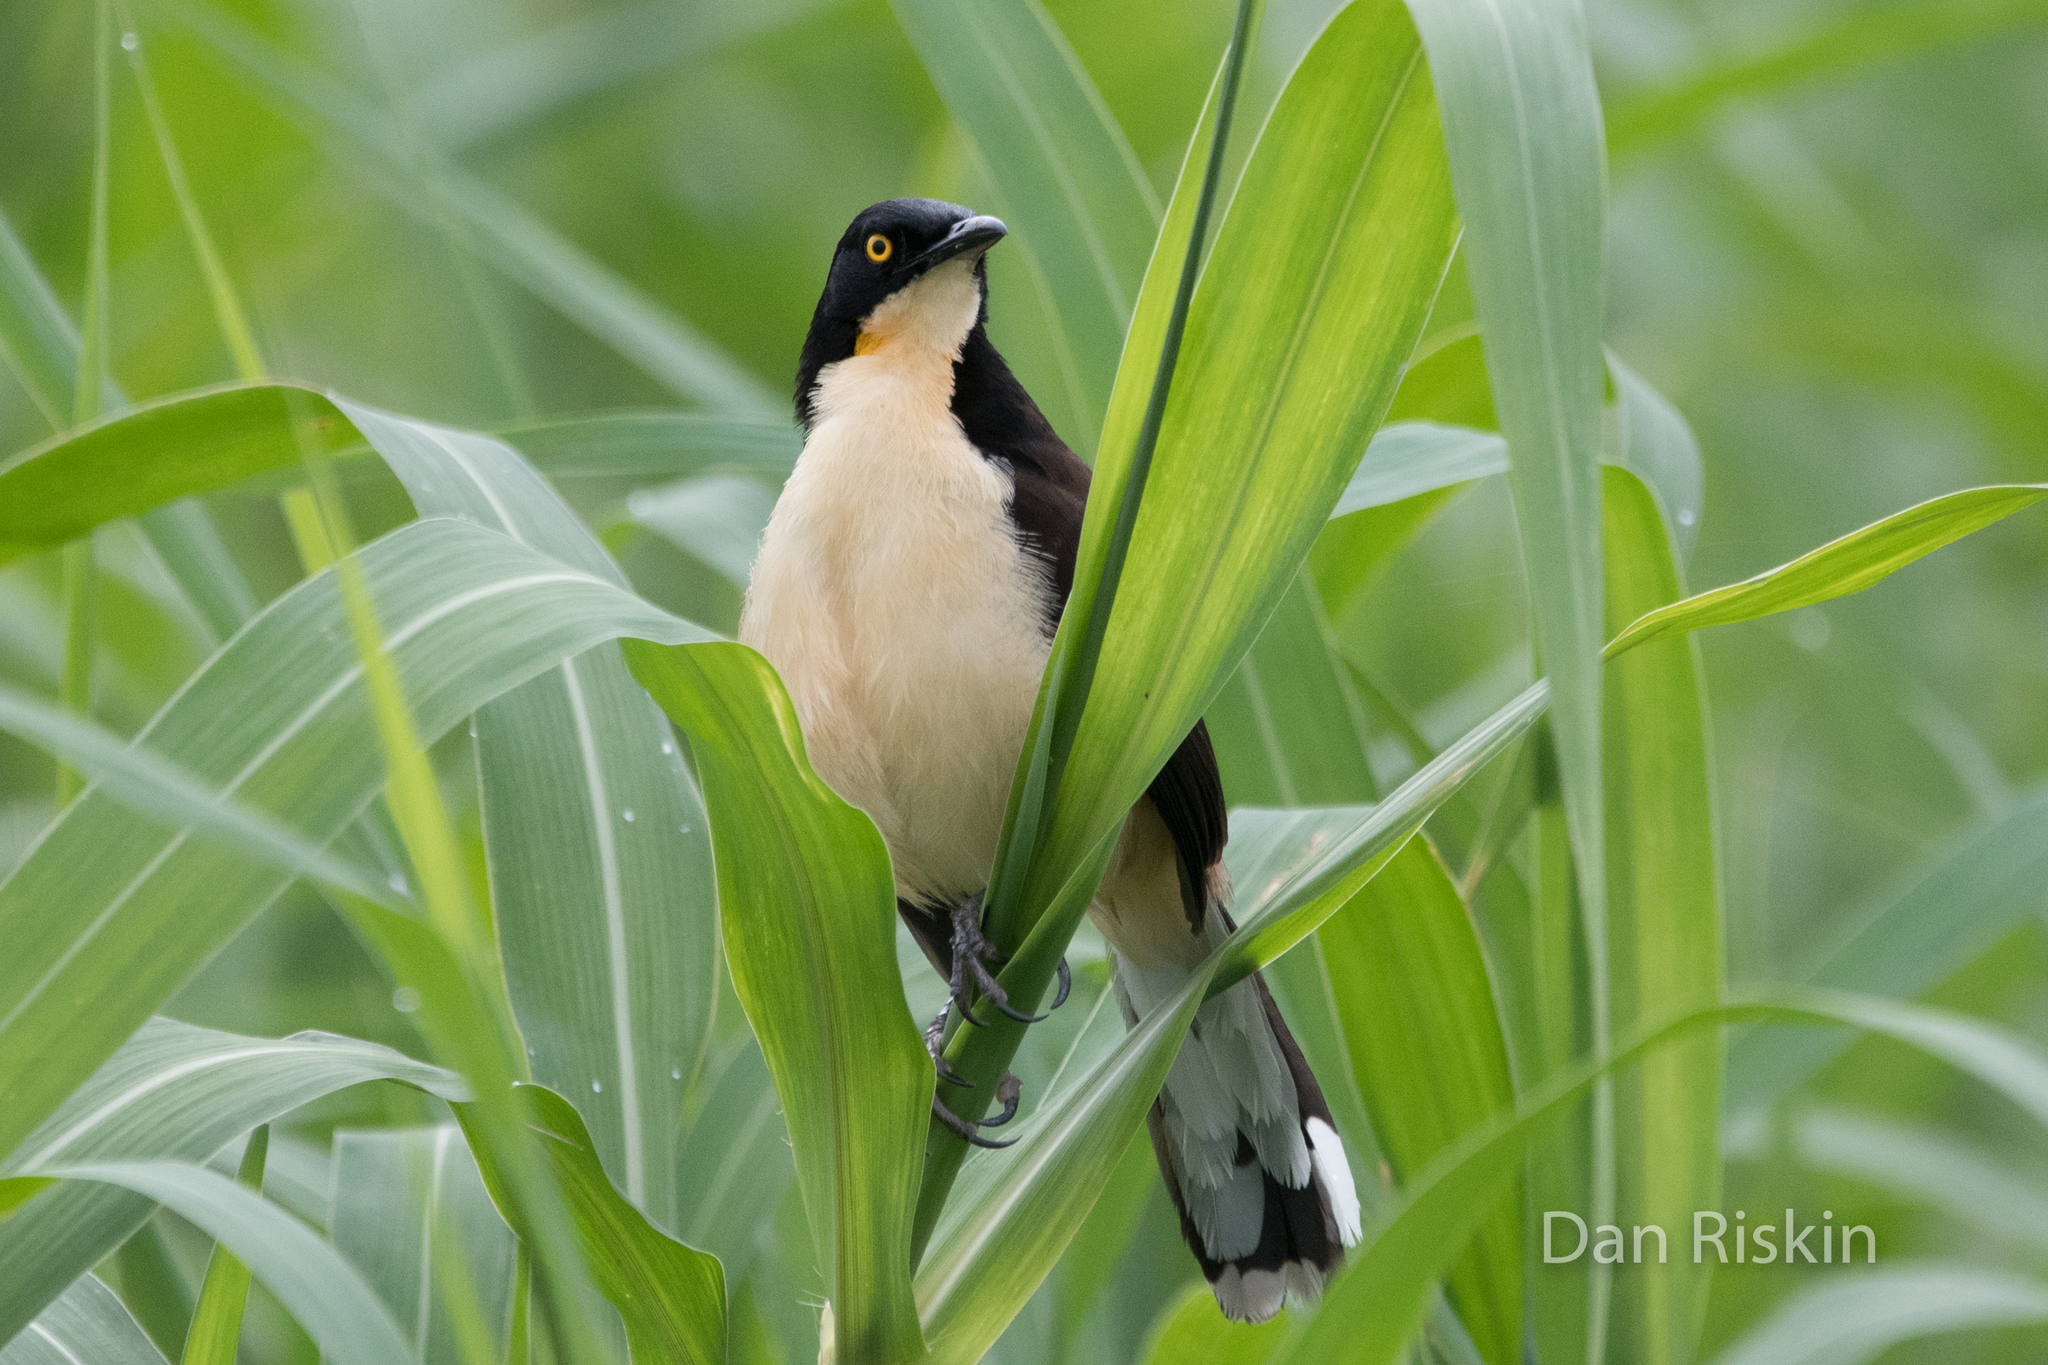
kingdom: Animalia
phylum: Chordata
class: Aves
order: Passeriformes
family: Donacobiidae
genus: Donacobius
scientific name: Donacobius atricapilla
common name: Black-capped donacobius
